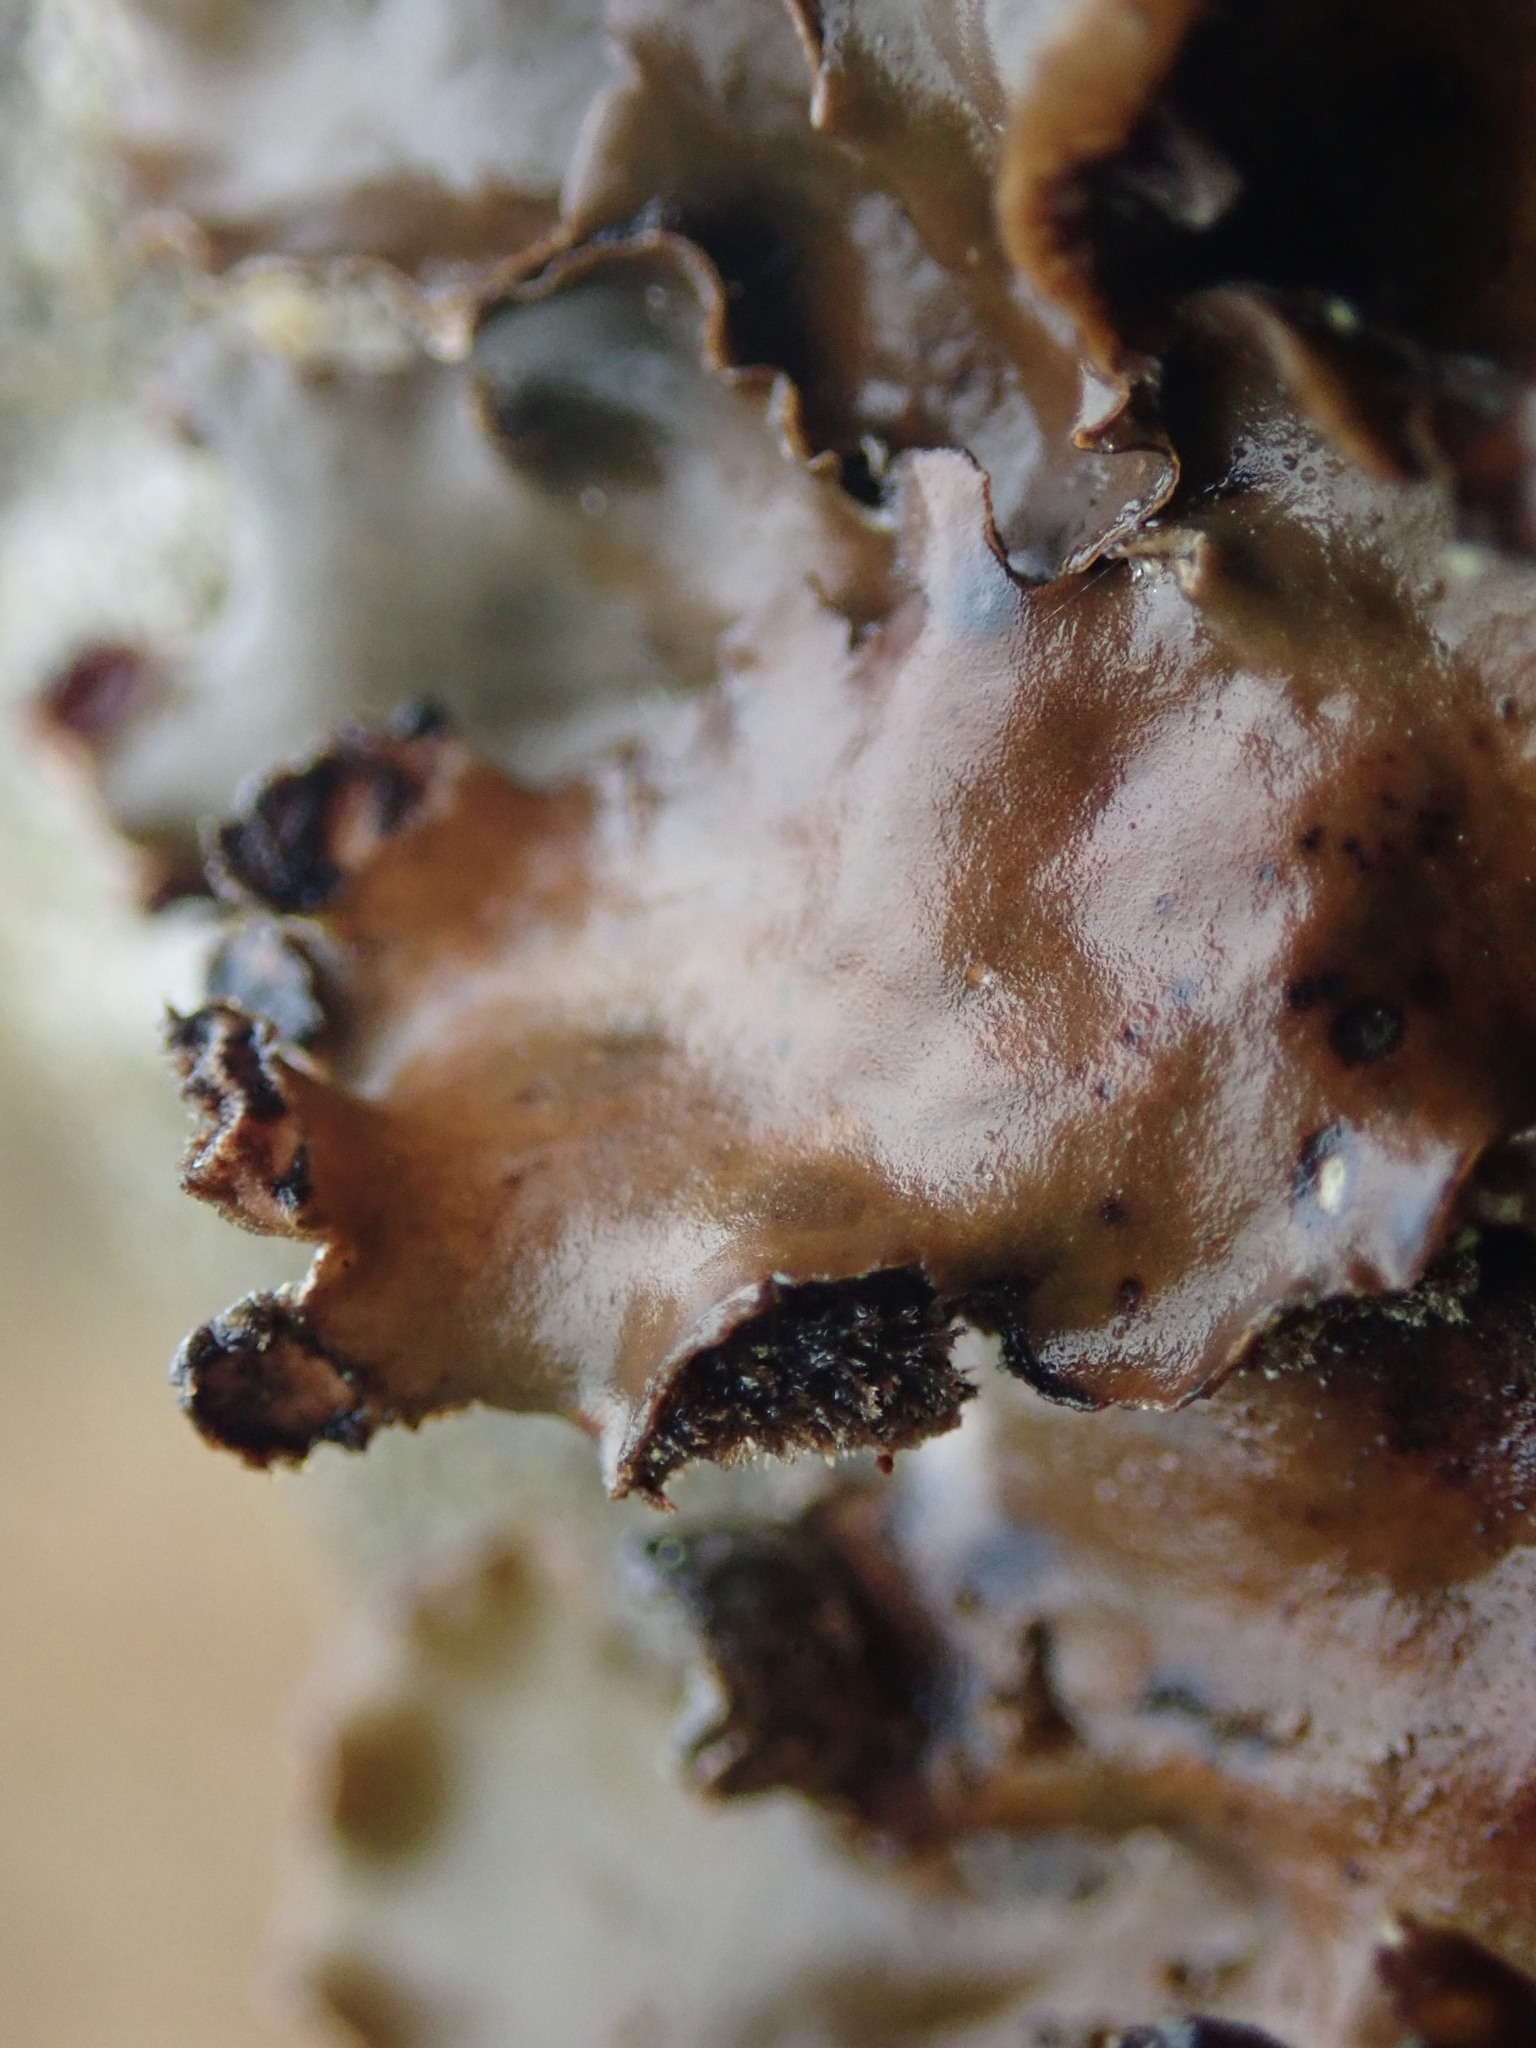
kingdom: Fungi
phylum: Ascomycota
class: Lecanoromycetes
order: Peltigerales
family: Peltigeraceae
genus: Peltigera
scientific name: Peltigera neckeri
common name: Blacksaddle pelt lichen
